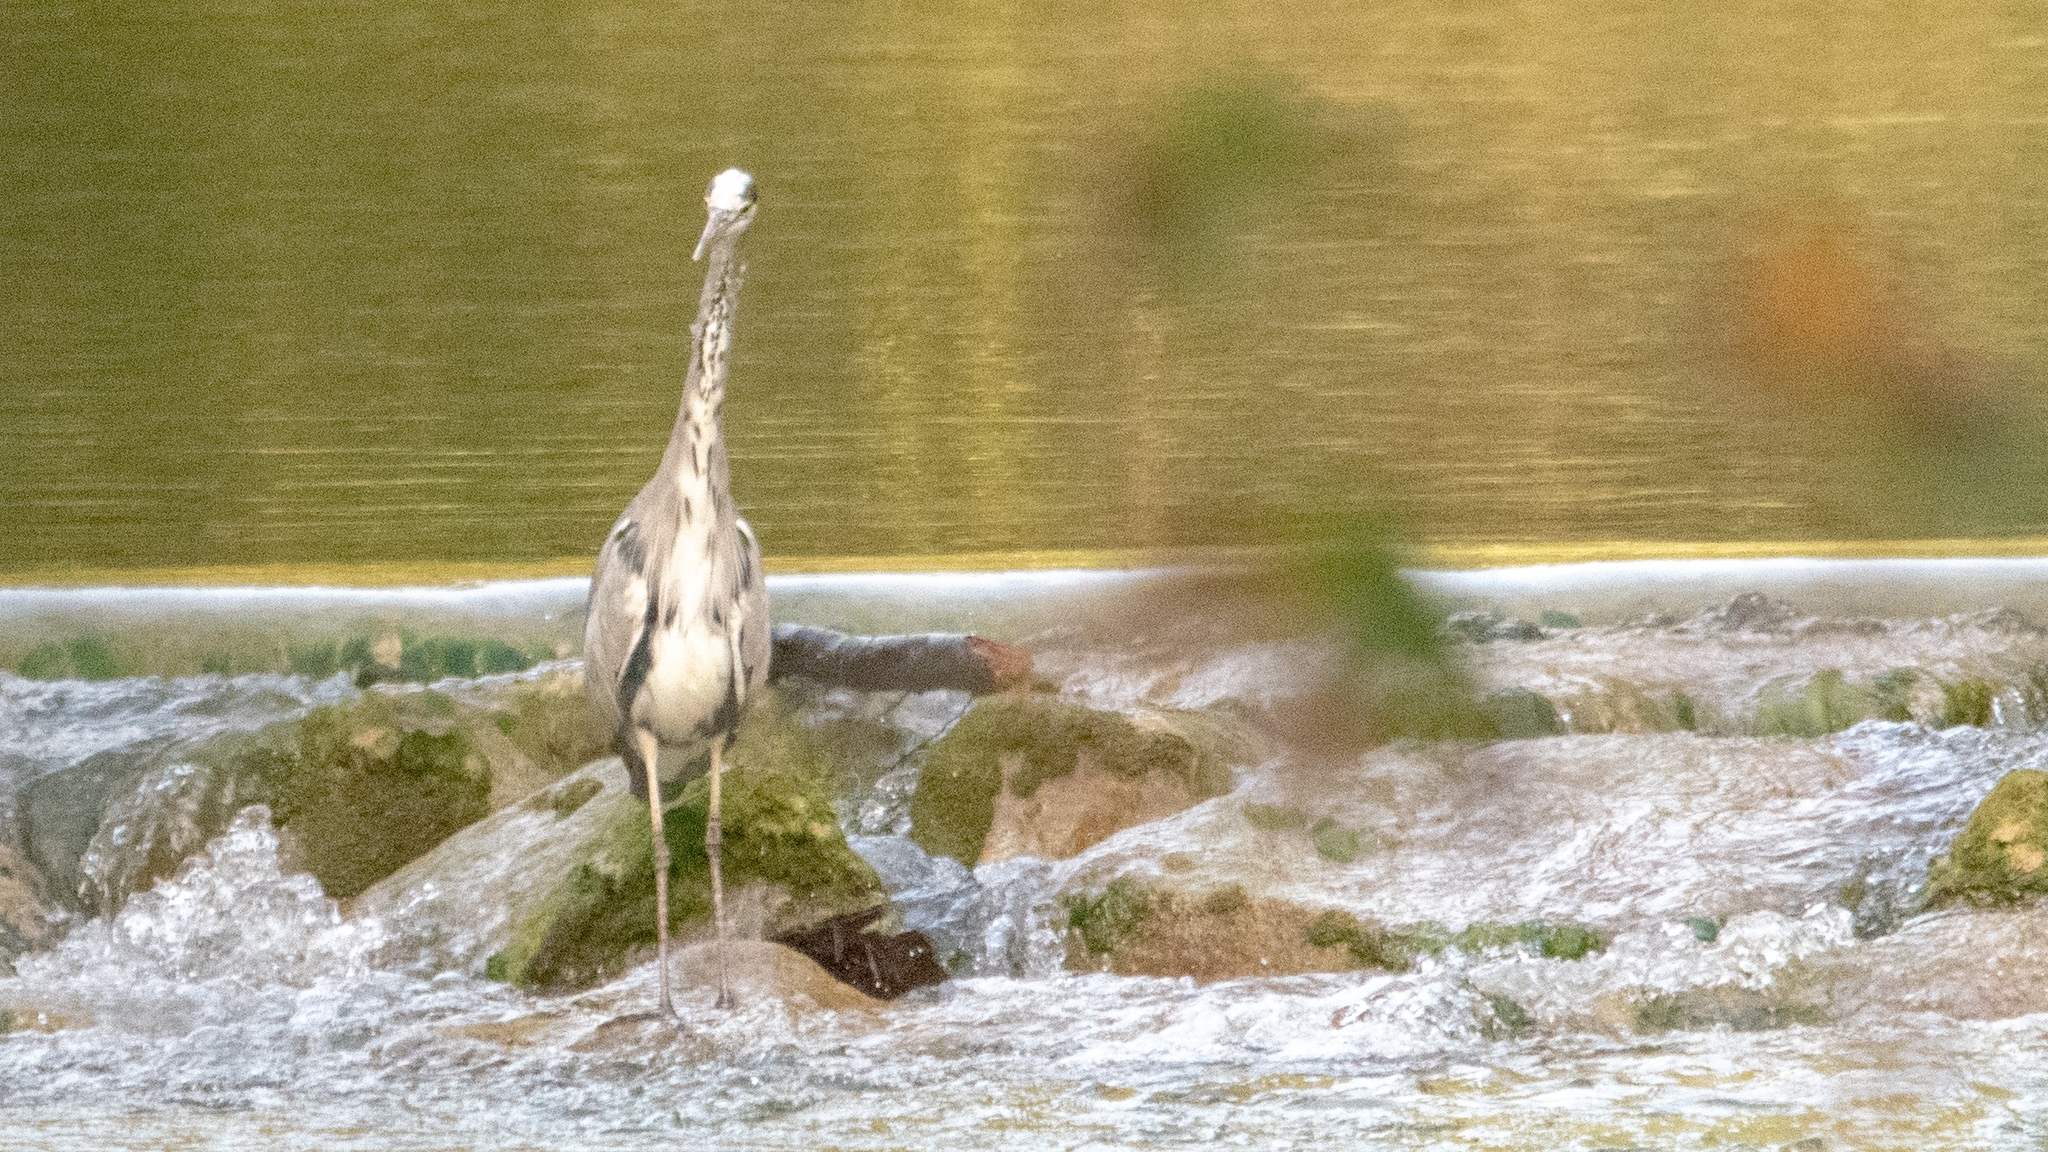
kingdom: Animalia
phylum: Chordata
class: Aves
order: Pelecaniformes
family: Ardeidae
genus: Ardea
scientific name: Ardea cinerea
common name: Grey heron
